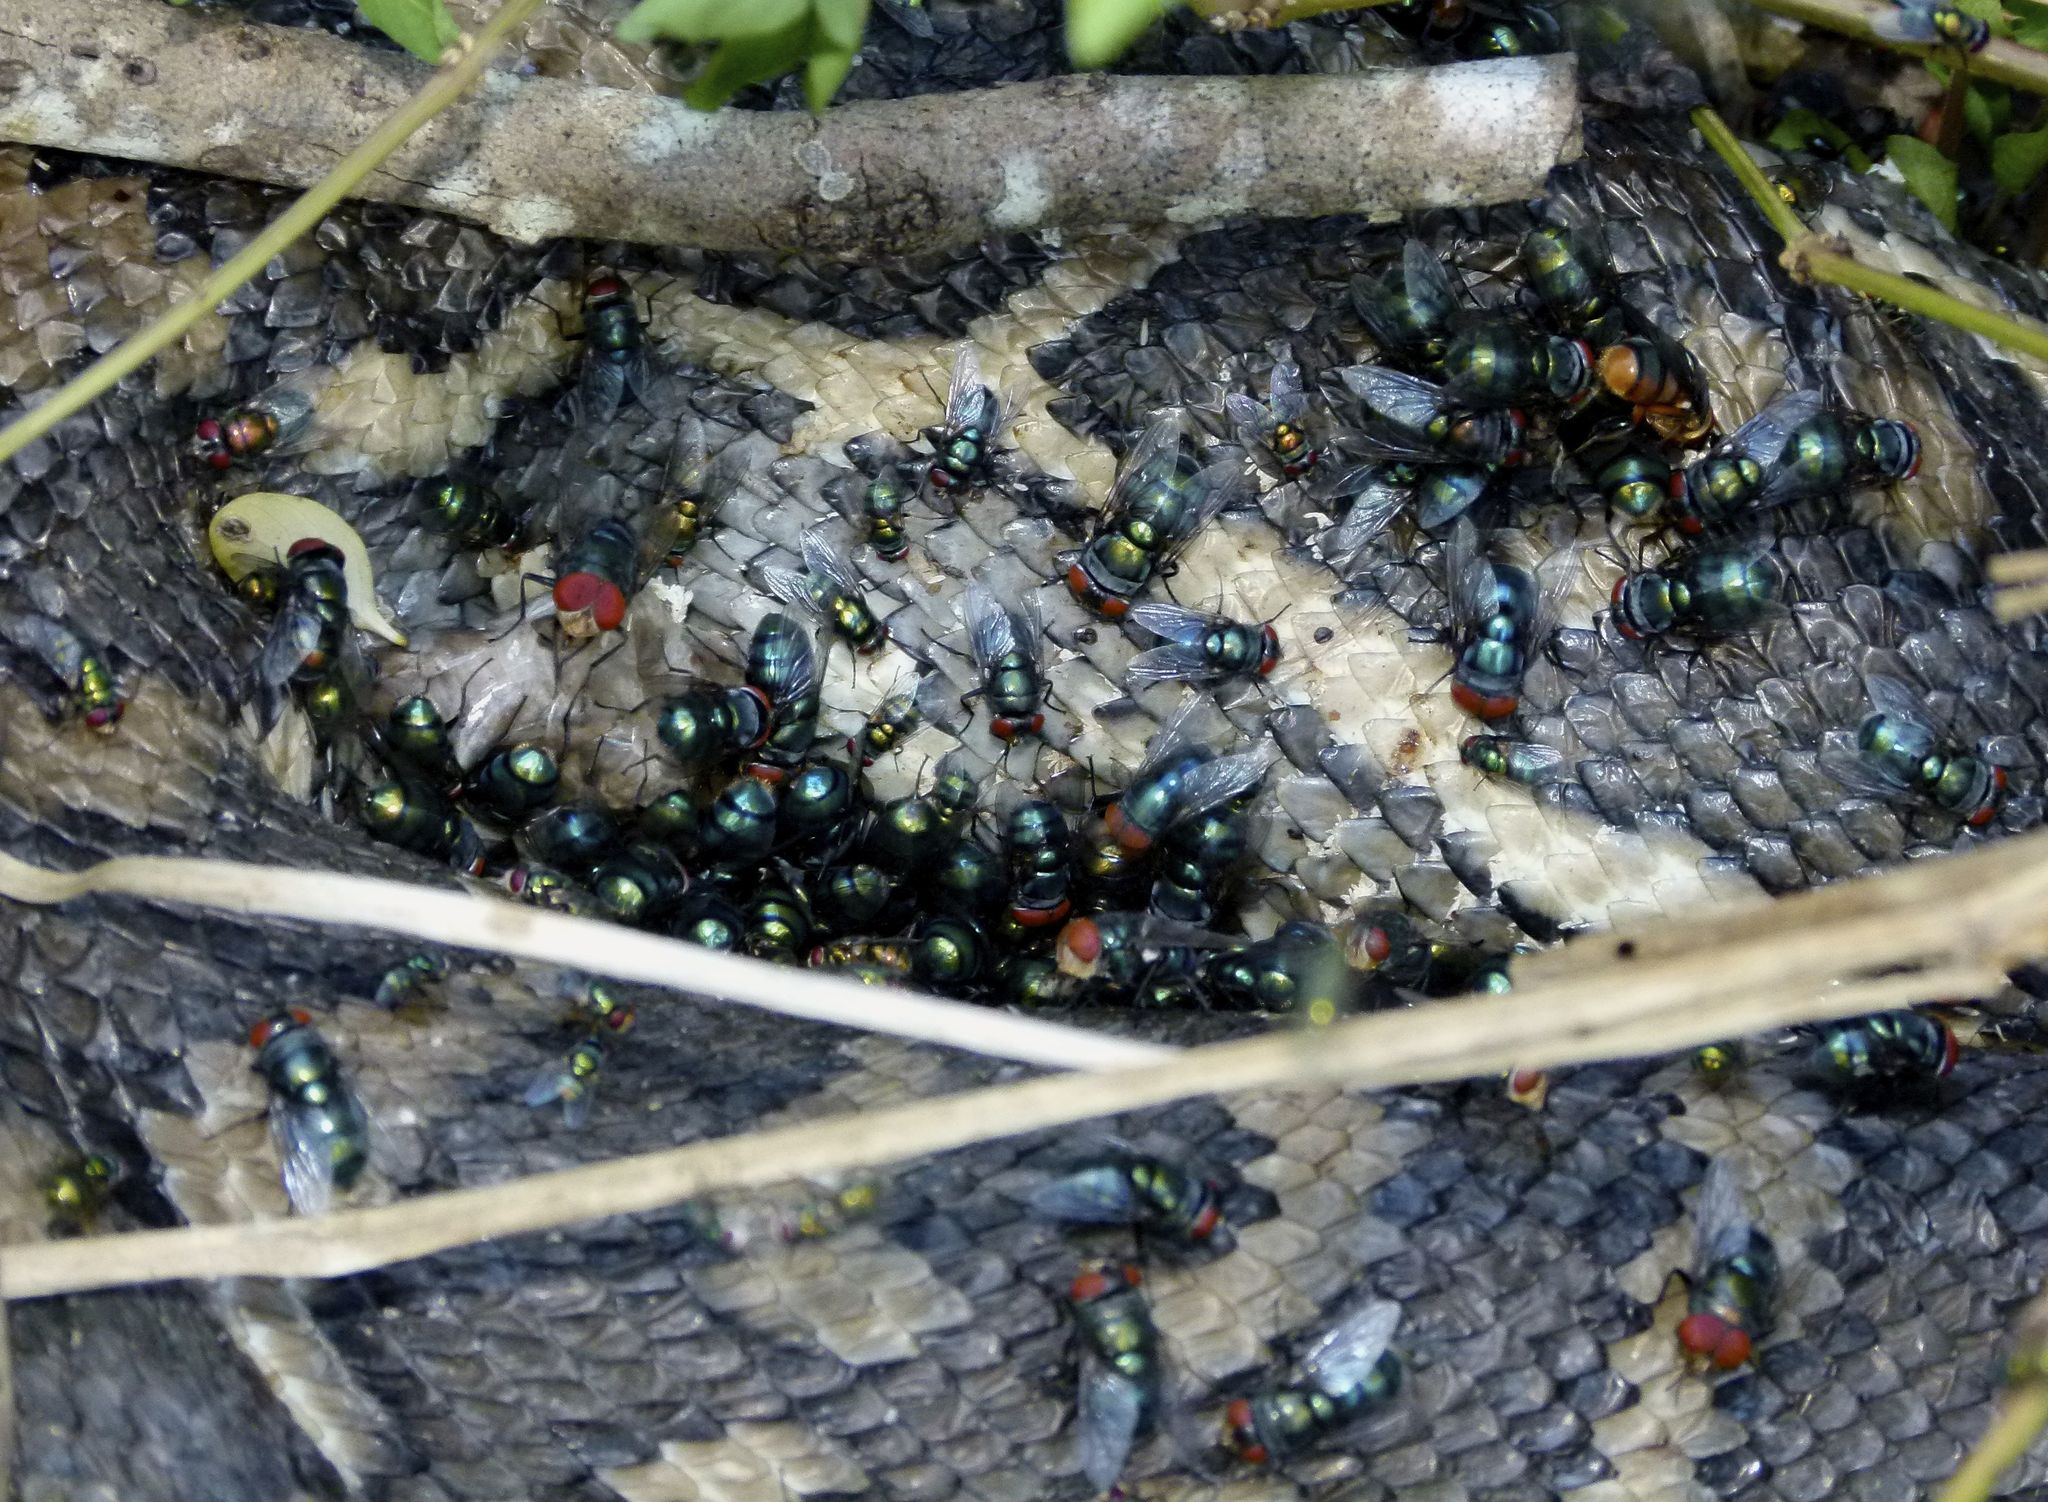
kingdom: Animalia
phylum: Chordata
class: Squamata
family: Pythonidae
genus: Morelia
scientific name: Morelia spilota
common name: Carpet python
